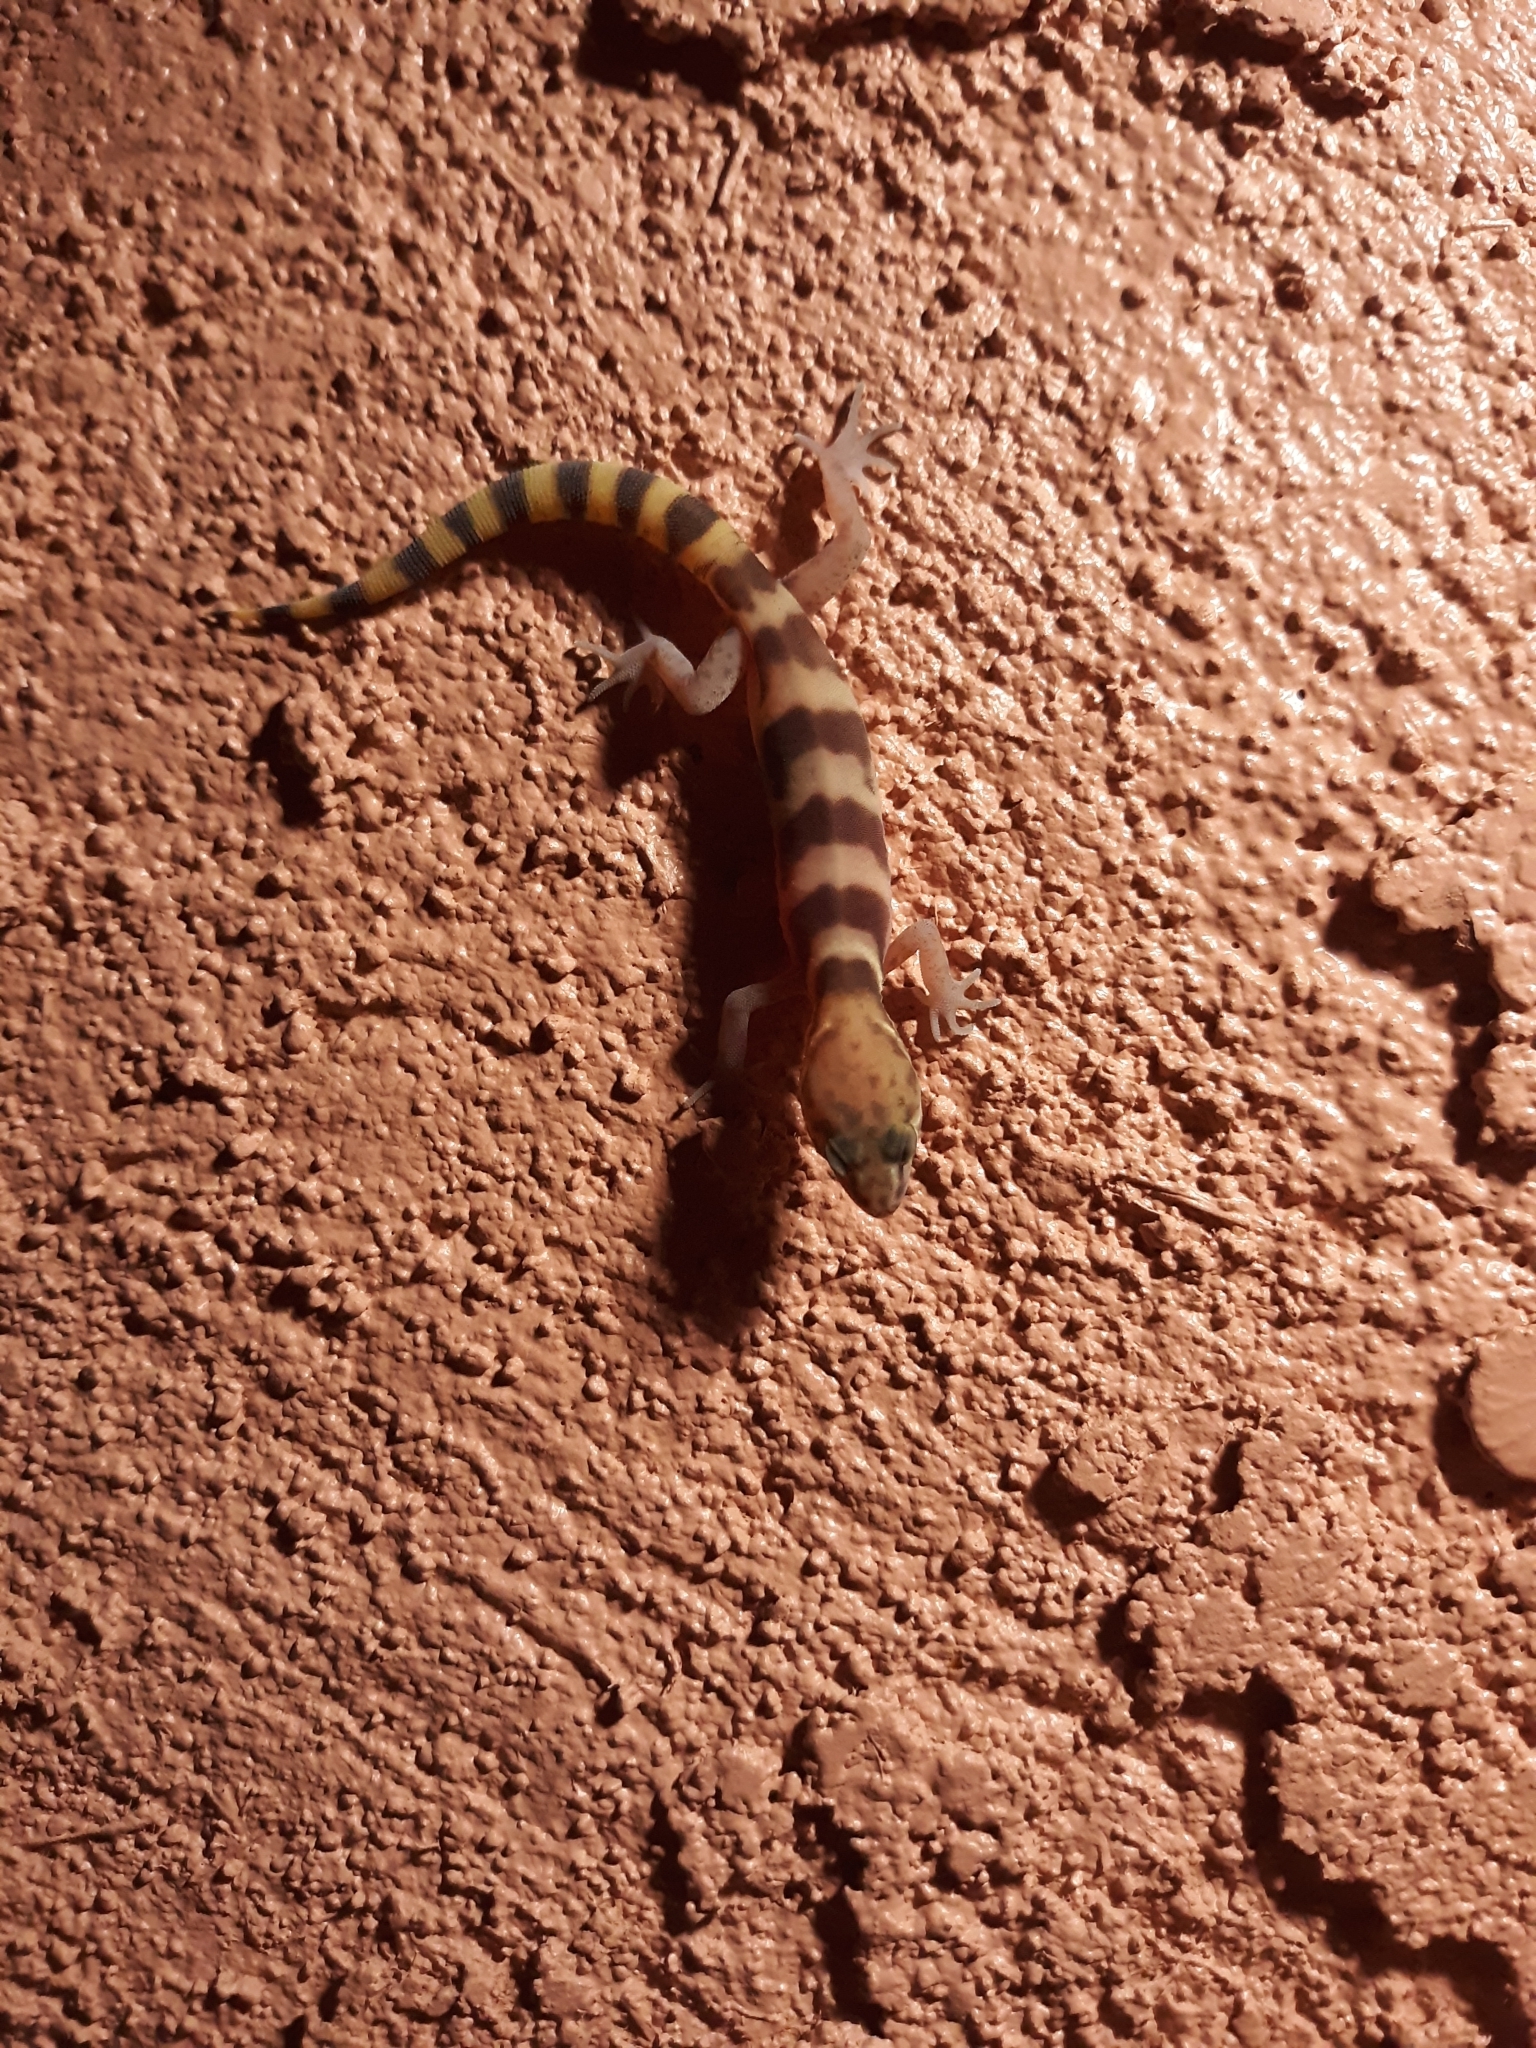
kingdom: Animalia
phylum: Chordata
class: Squamata
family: Eublepharidae
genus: Coleonyx
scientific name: Coleonyx variegatus
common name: Western banded gecko
